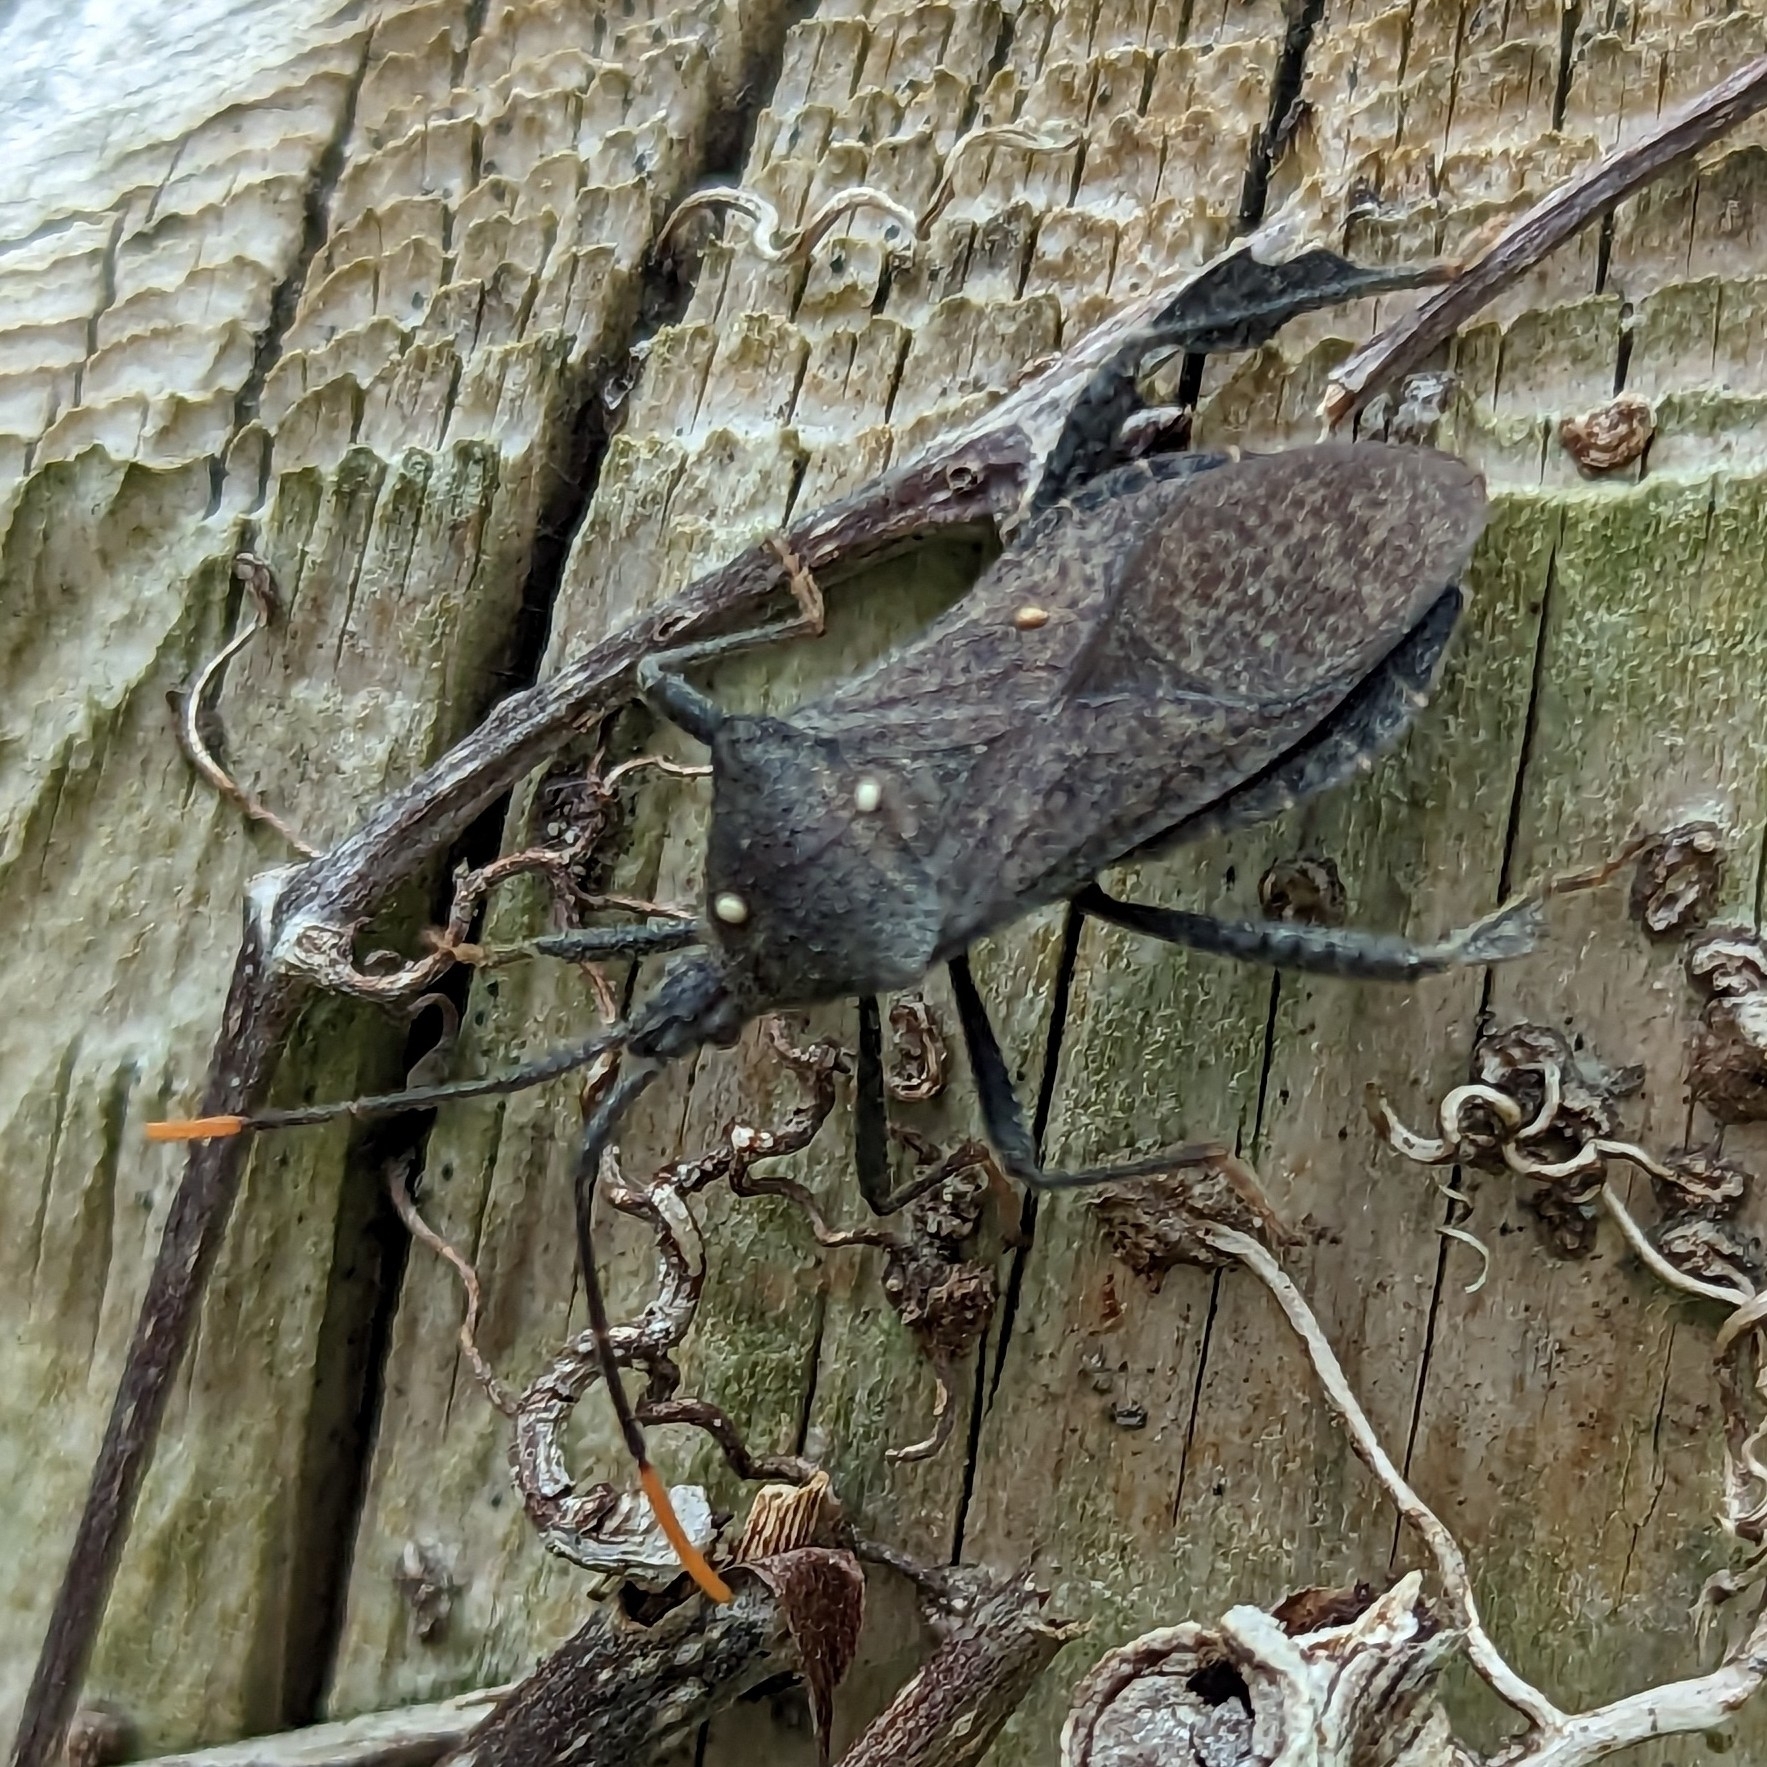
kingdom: Animalia
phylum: Arthropoda
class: Insecta
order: Hemiptera
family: Coreidae
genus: Acanthocephala
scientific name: Acanthocephala terminalis
